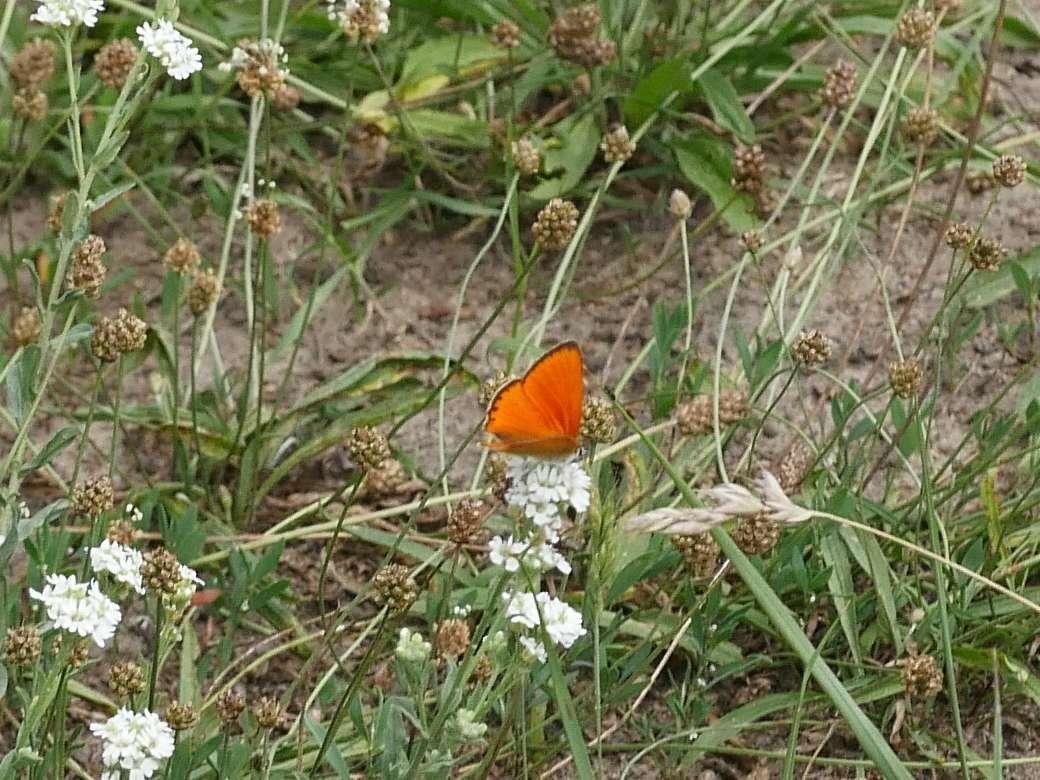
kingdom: Animalia
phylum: Arthropoda
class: Insecta
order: Lepidoptera
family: Lycaenidae
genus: Lycaena
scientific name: Lycaena virgaureae
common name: Scarce copper
